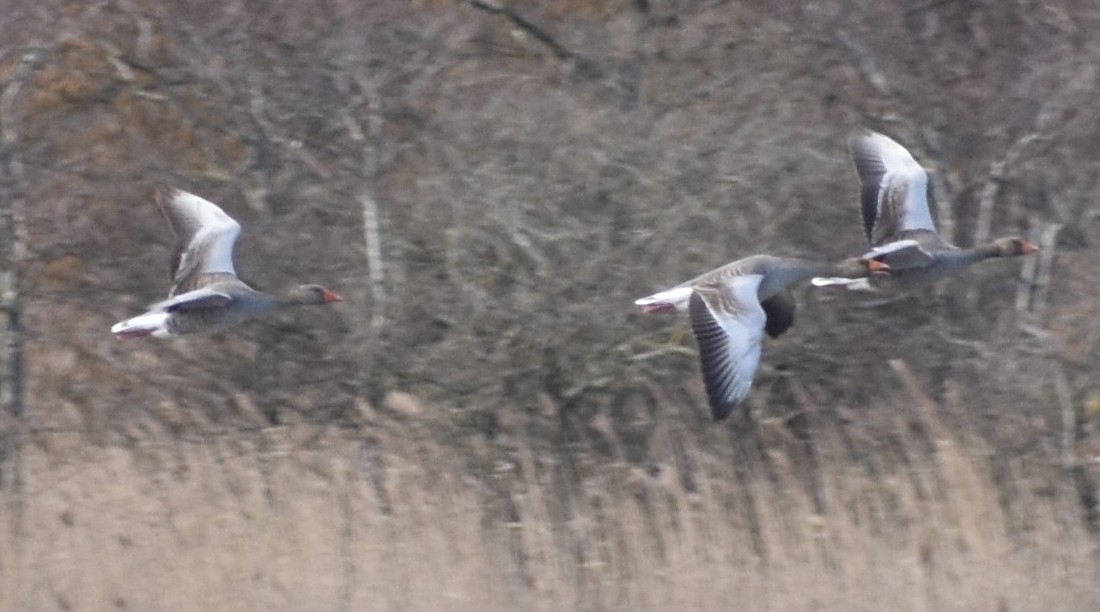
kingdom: Animalia
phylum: Chordata
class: Aves
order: Anseriformes
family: Anatidae
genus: Anser
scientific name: Anser anser
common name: Greylag goose
